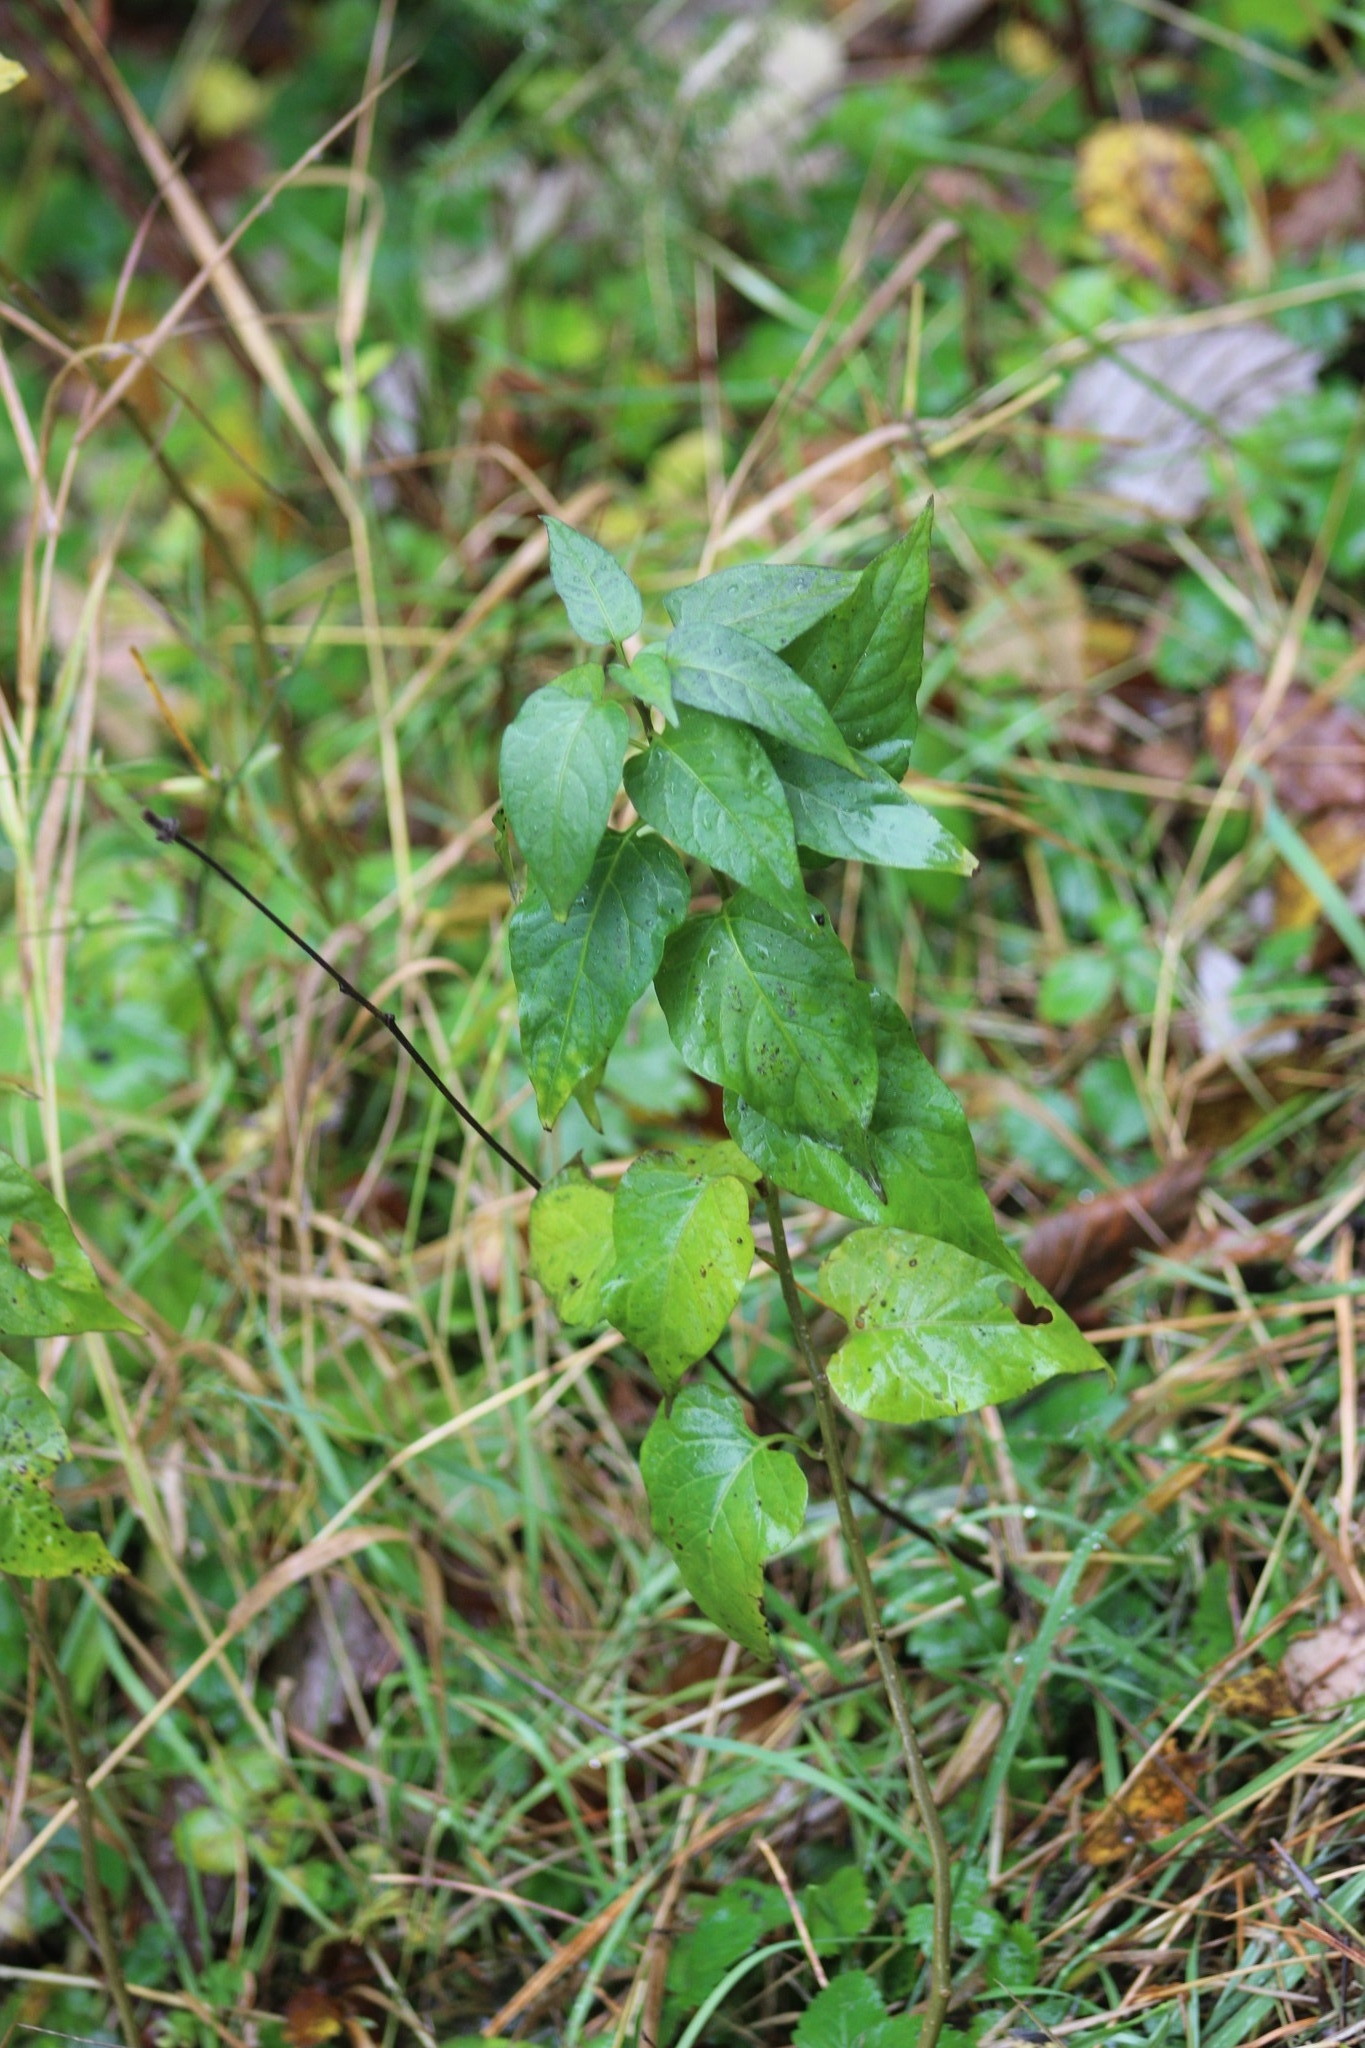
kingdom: Plantae
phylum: Tracheophyta
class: Magnoliopsida
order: Solanales
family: Solanaceae
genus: Solanum
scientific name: Solanum dulcamara
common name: Climbing nightshade
